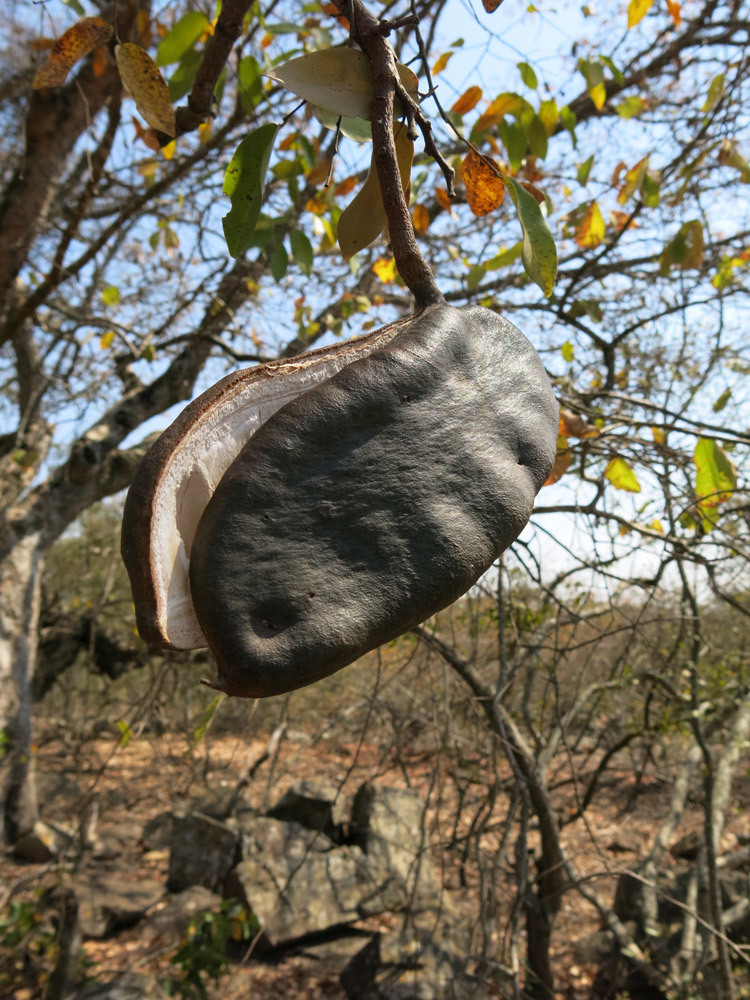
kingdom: Plantae
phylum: Tracheophyta
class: Magnoliopsida
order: Fabales
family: Fabaceae
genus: Afzelia
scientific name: Afzelia quanzensis
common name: Pod mahogany
